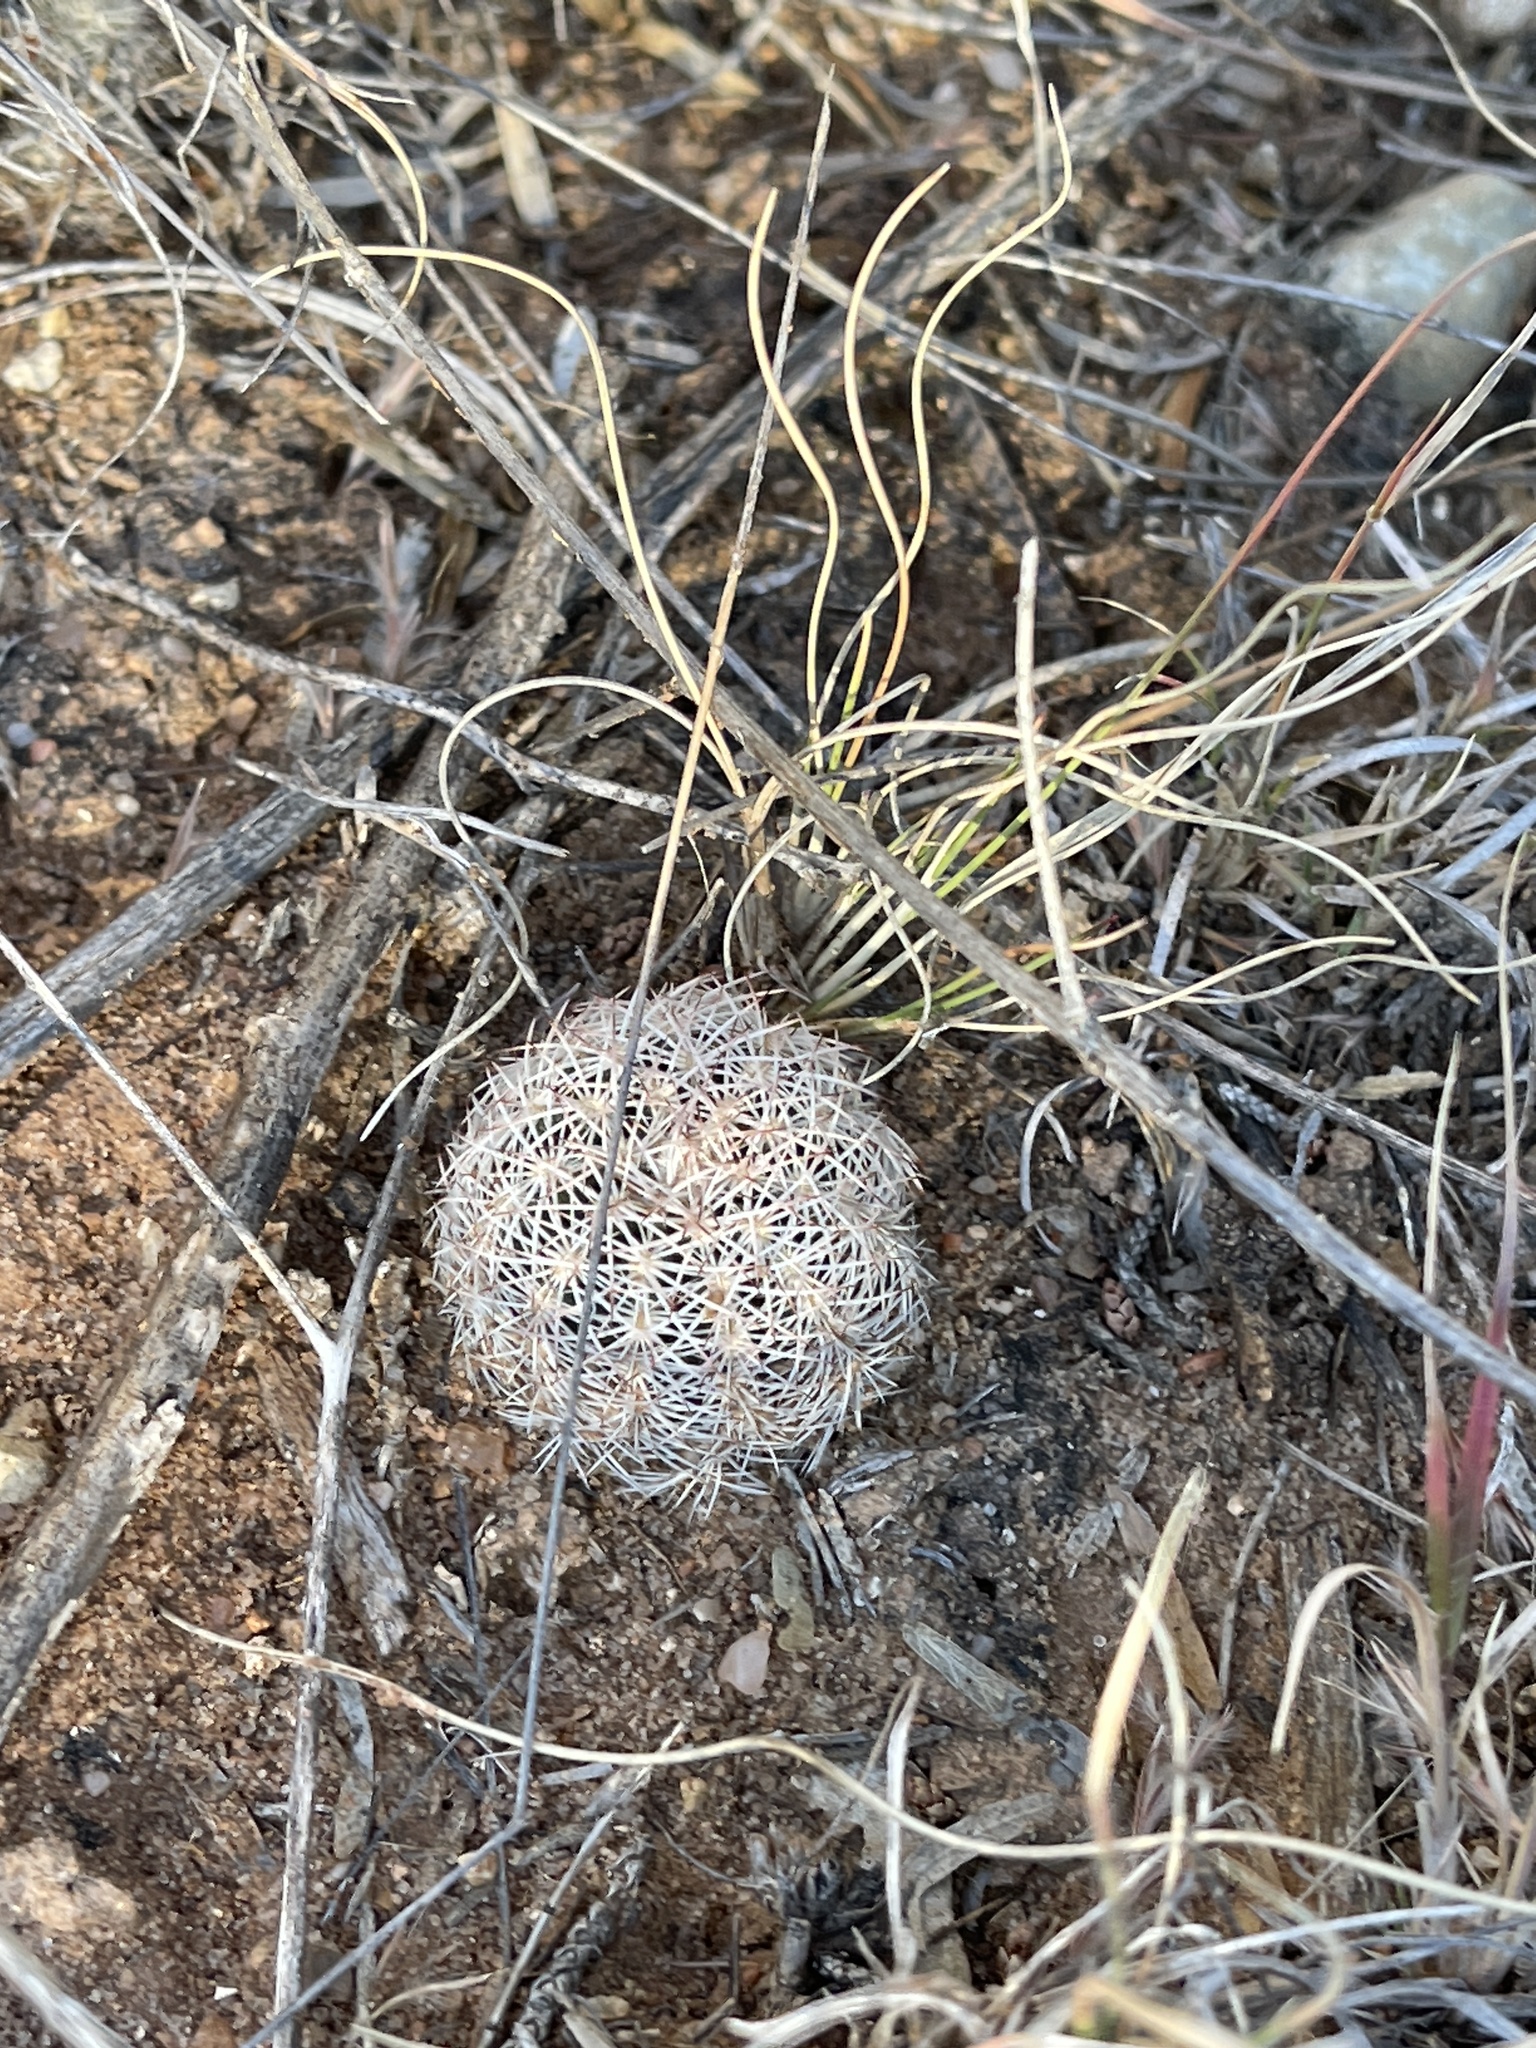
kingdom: Plantae
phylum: Tracheophyta
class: Magnoliopsida
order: Caryophyllales
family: Cactaceae
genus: Echinocereus
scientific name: Echinocereus reichenbachii
